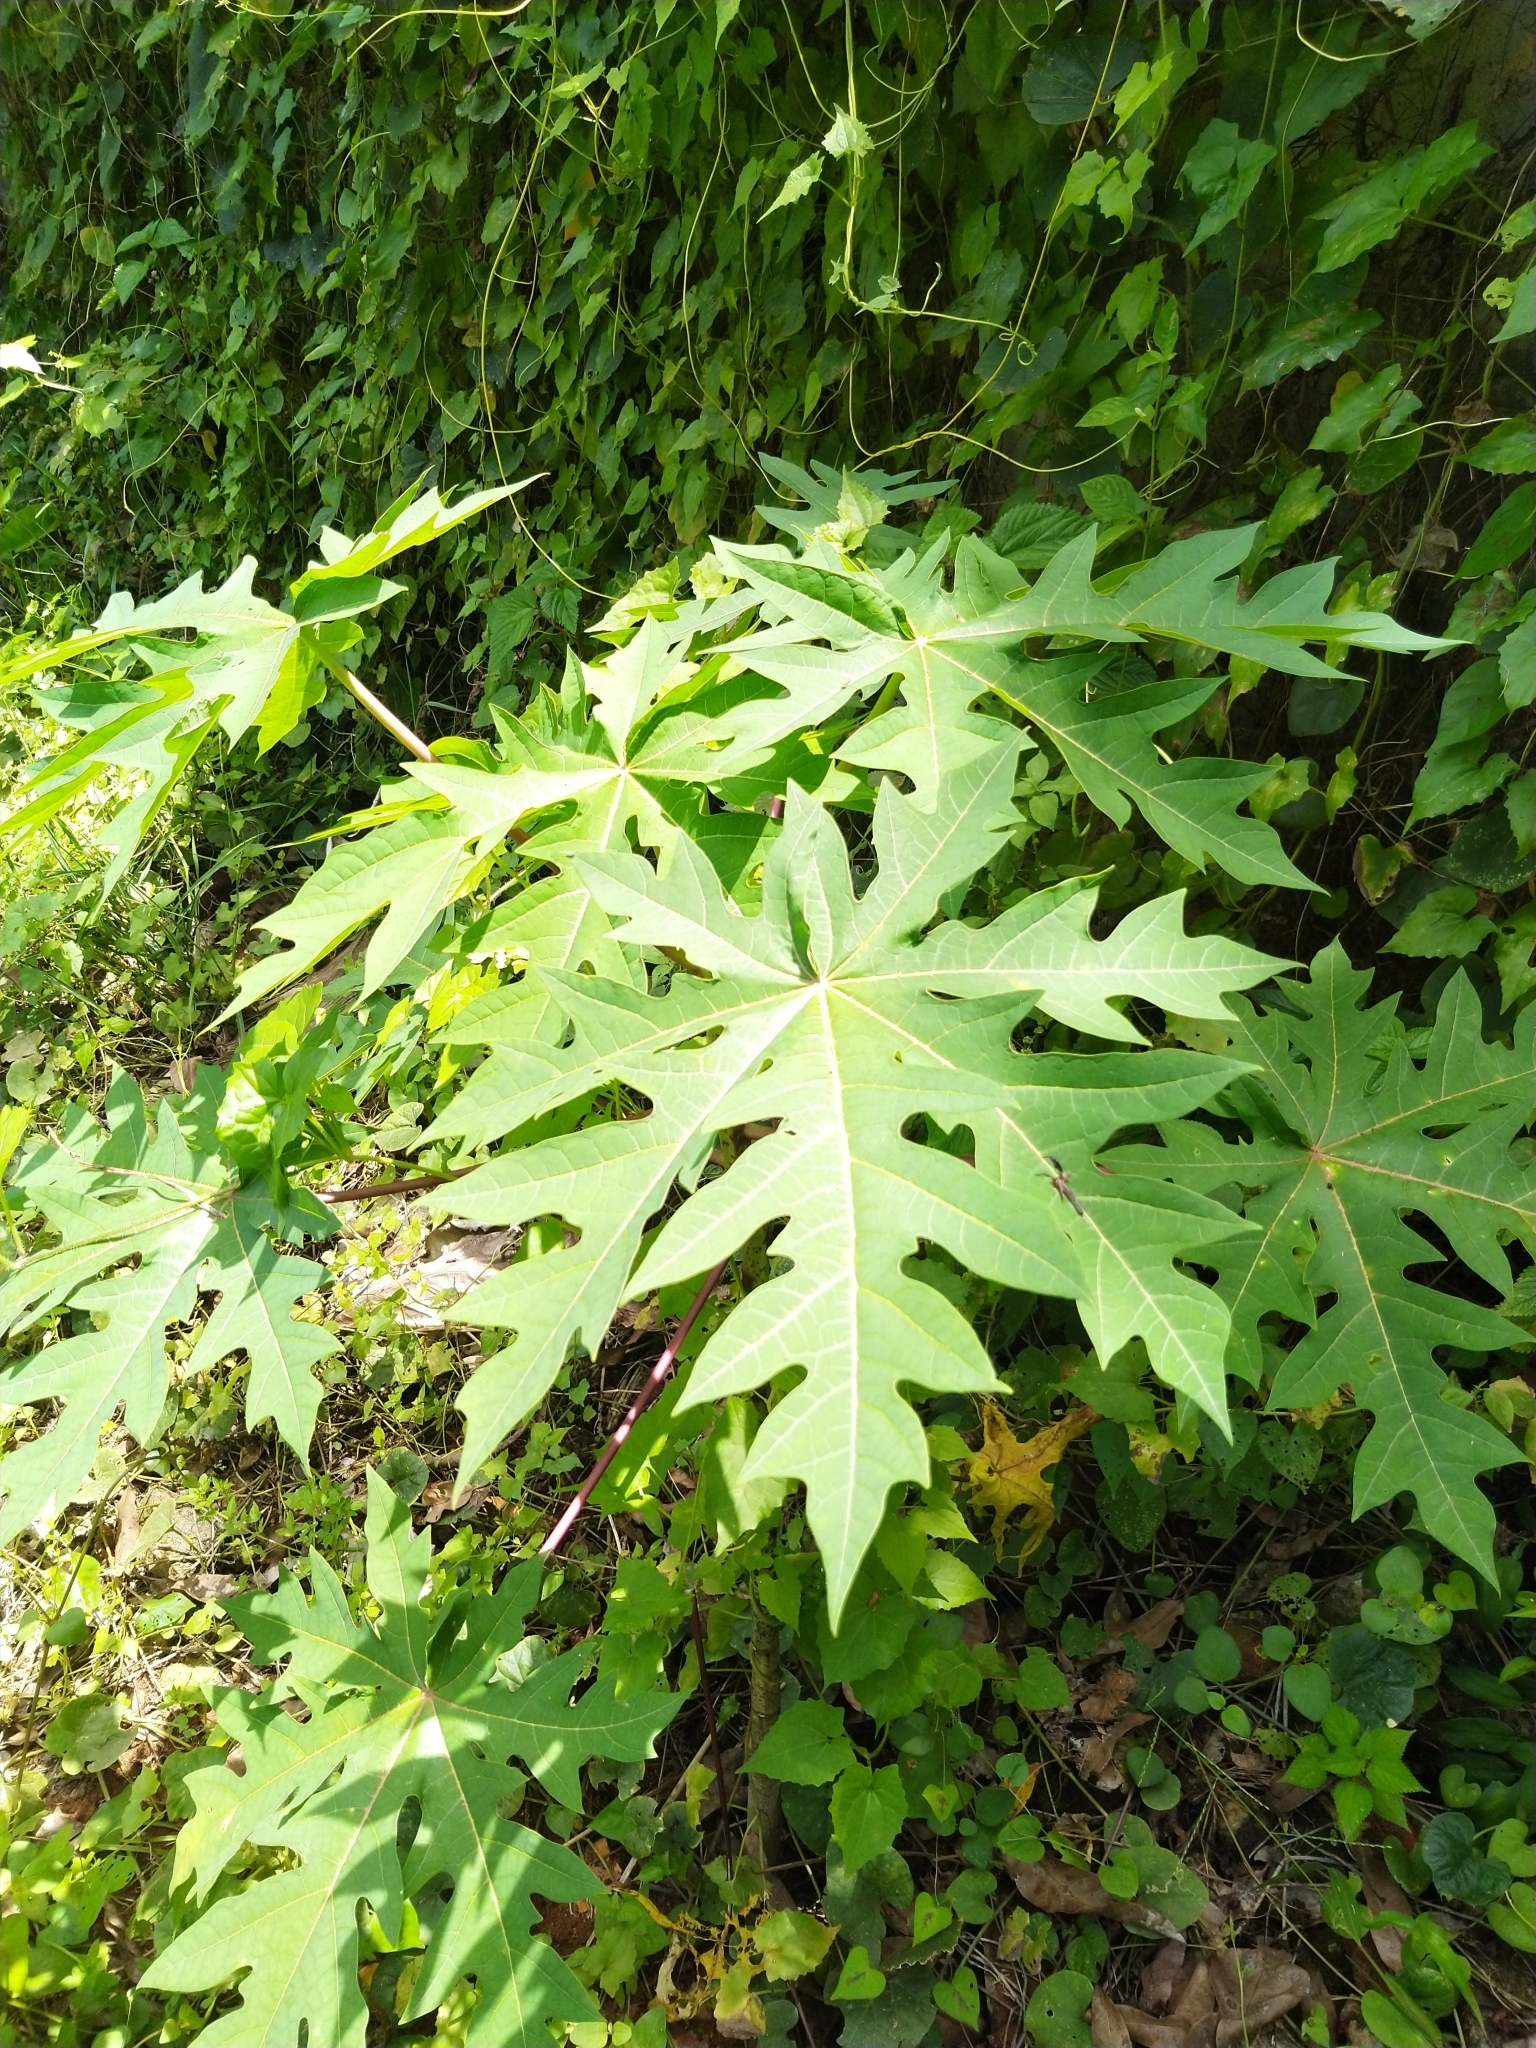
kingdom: Plantae
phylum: Tracheophyta
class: Magnoliopsida
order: Brassicales
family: Caricaceae
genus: Carica
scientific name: Carica papaya
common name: Papaya
